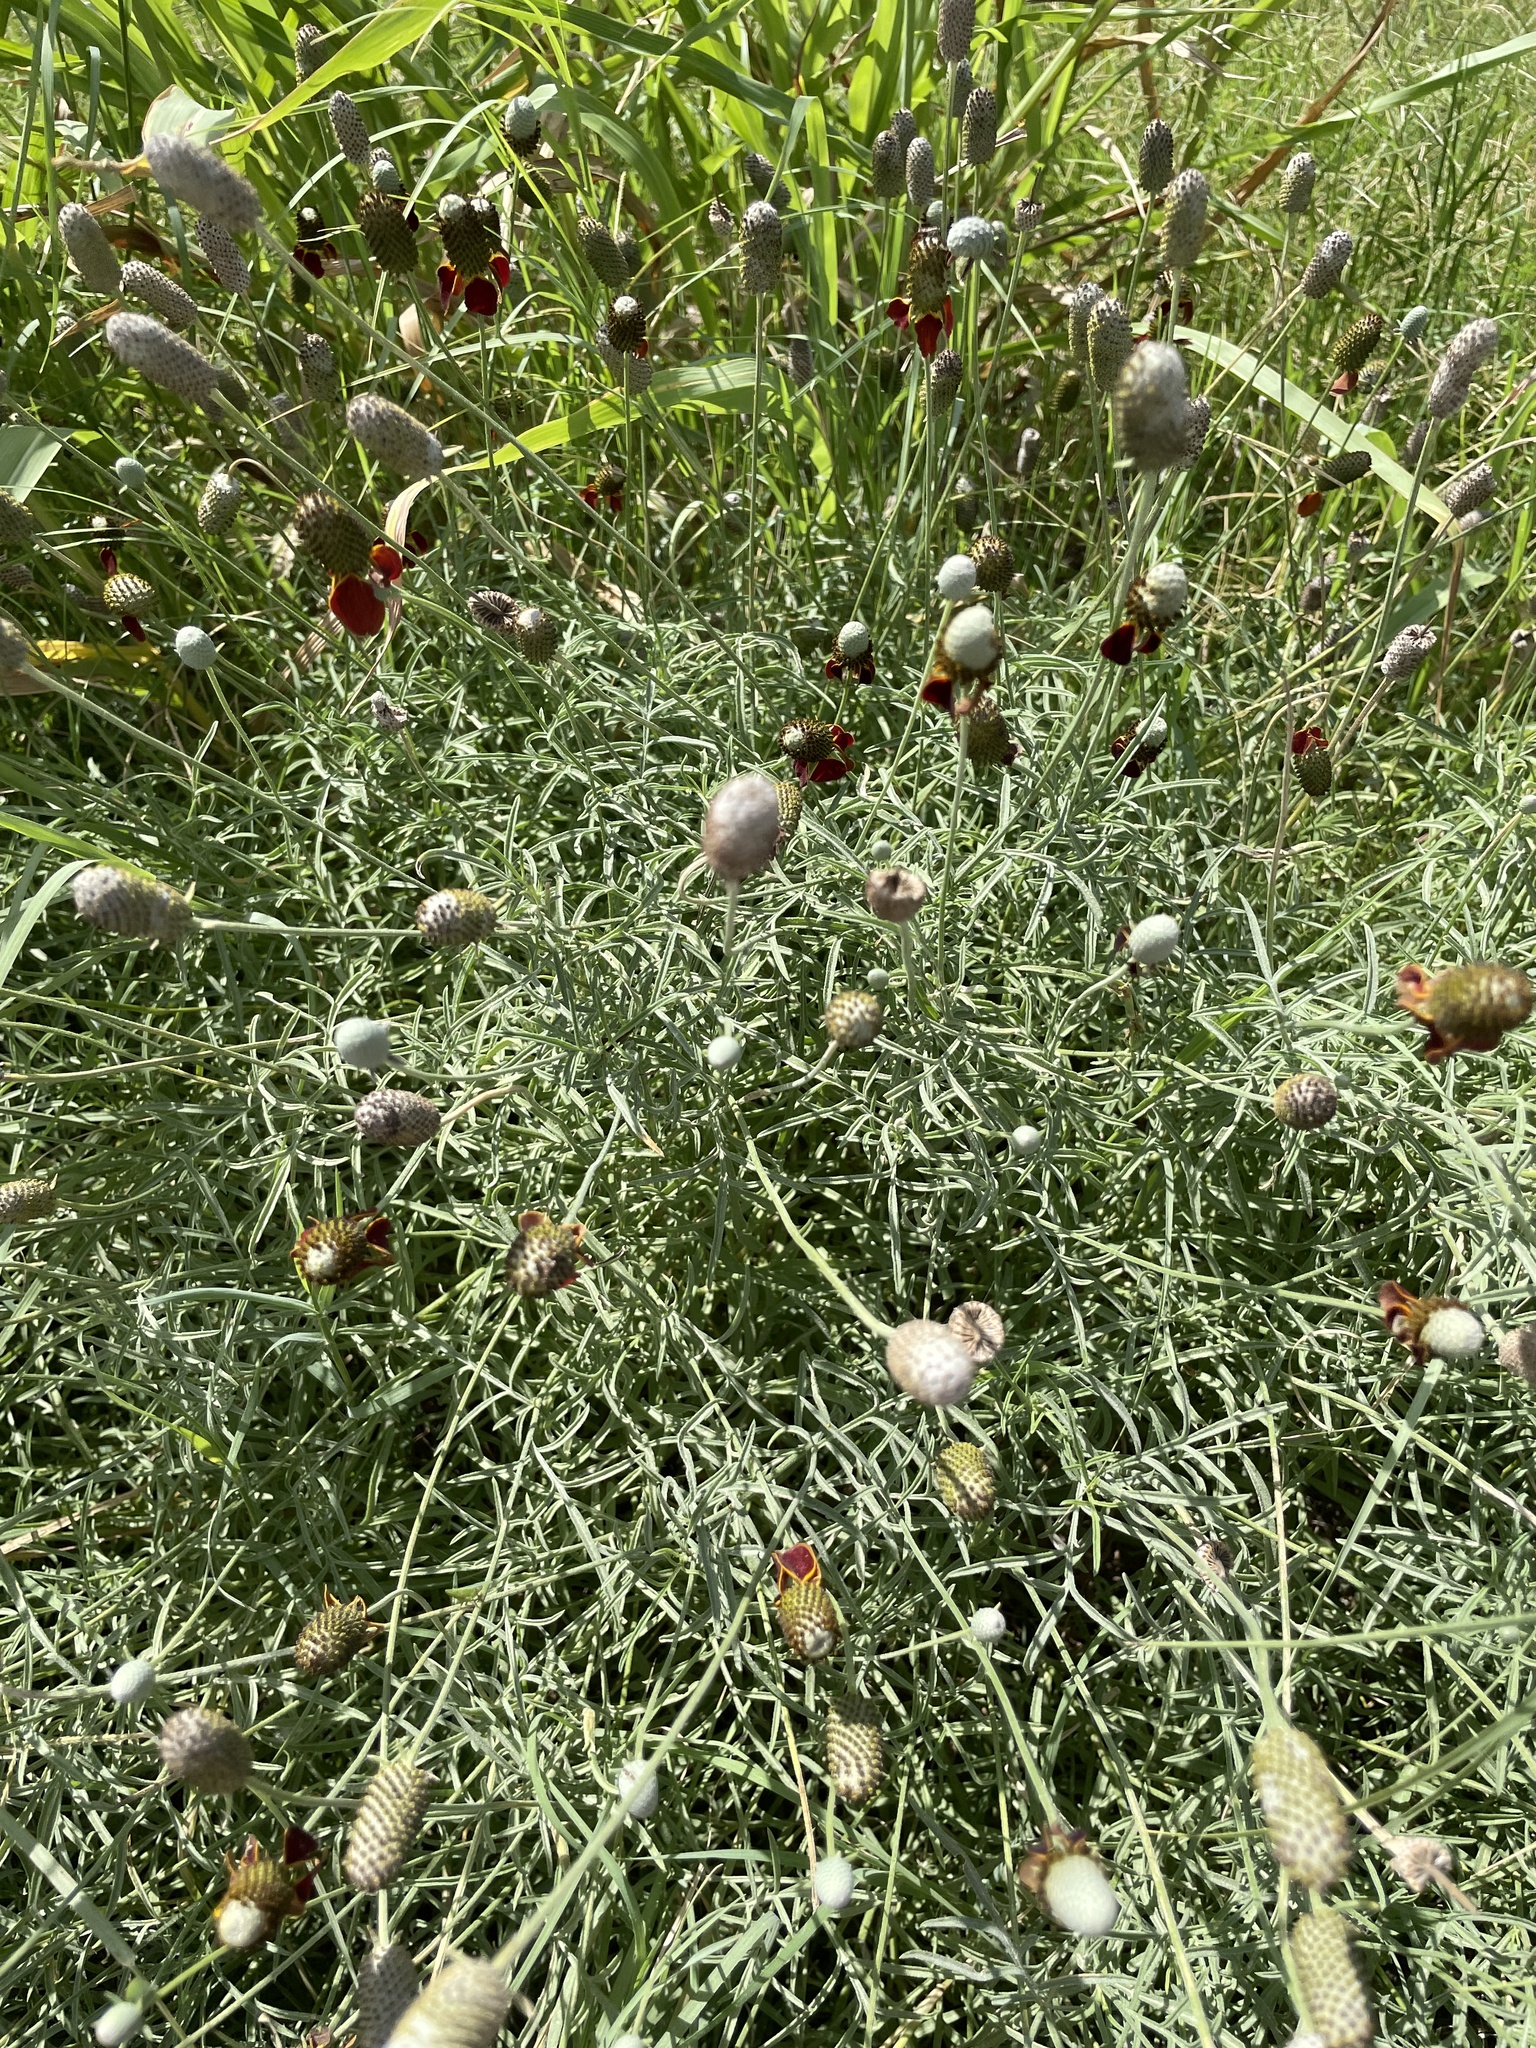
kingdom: Plantae
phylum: Tracheophyta
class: Magnoliopsida
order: Asterales
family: Asteraceae
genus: Ratibida
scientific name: Ratibida columnifera
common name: Prairie coneflower
